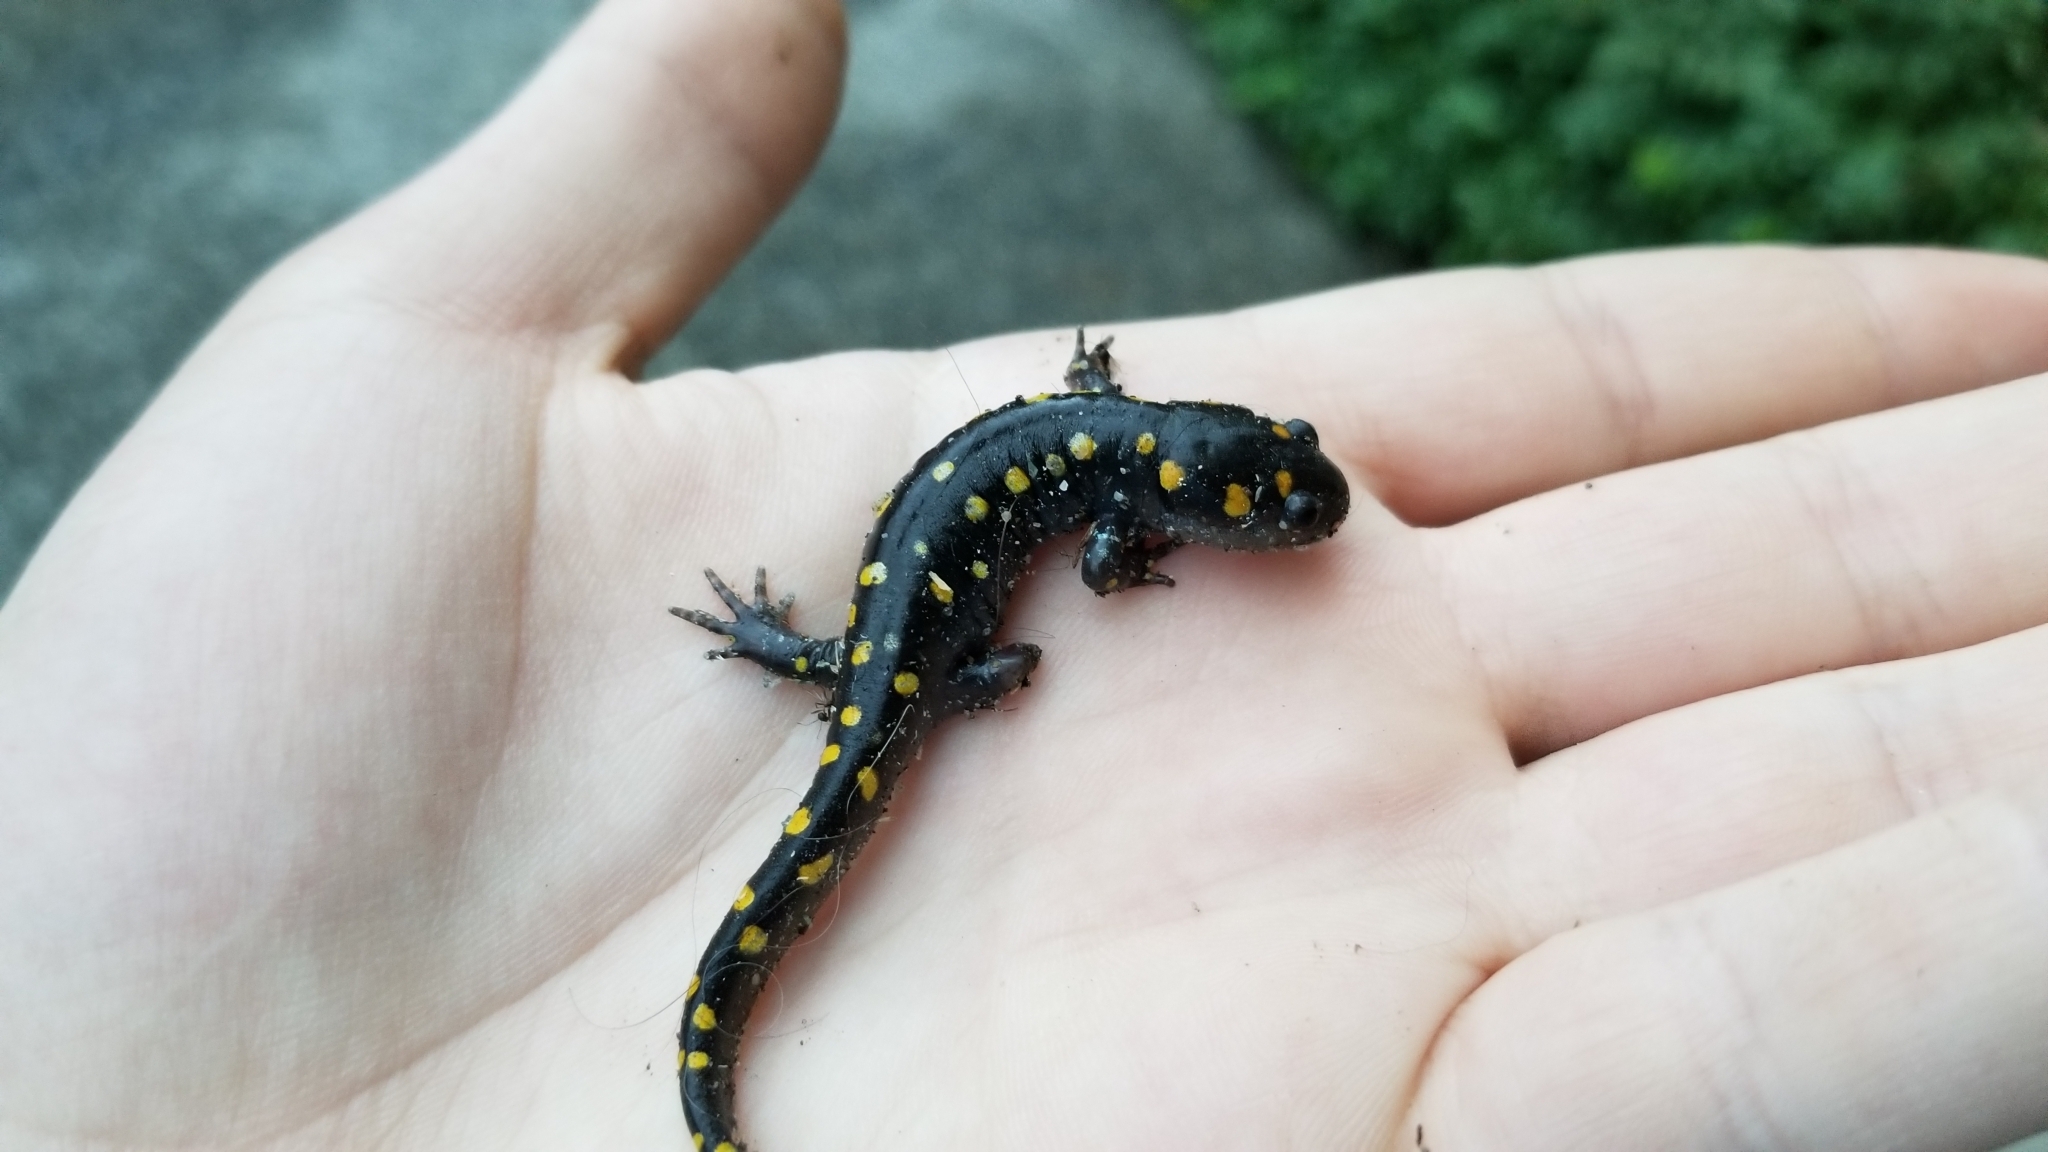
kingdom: Animalia
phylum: Chordata
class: Amphibia
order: Caudata
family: Ambystomatidae
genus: Ambystoma
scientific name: Ambystoma maculatum
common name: Spotted salamander
